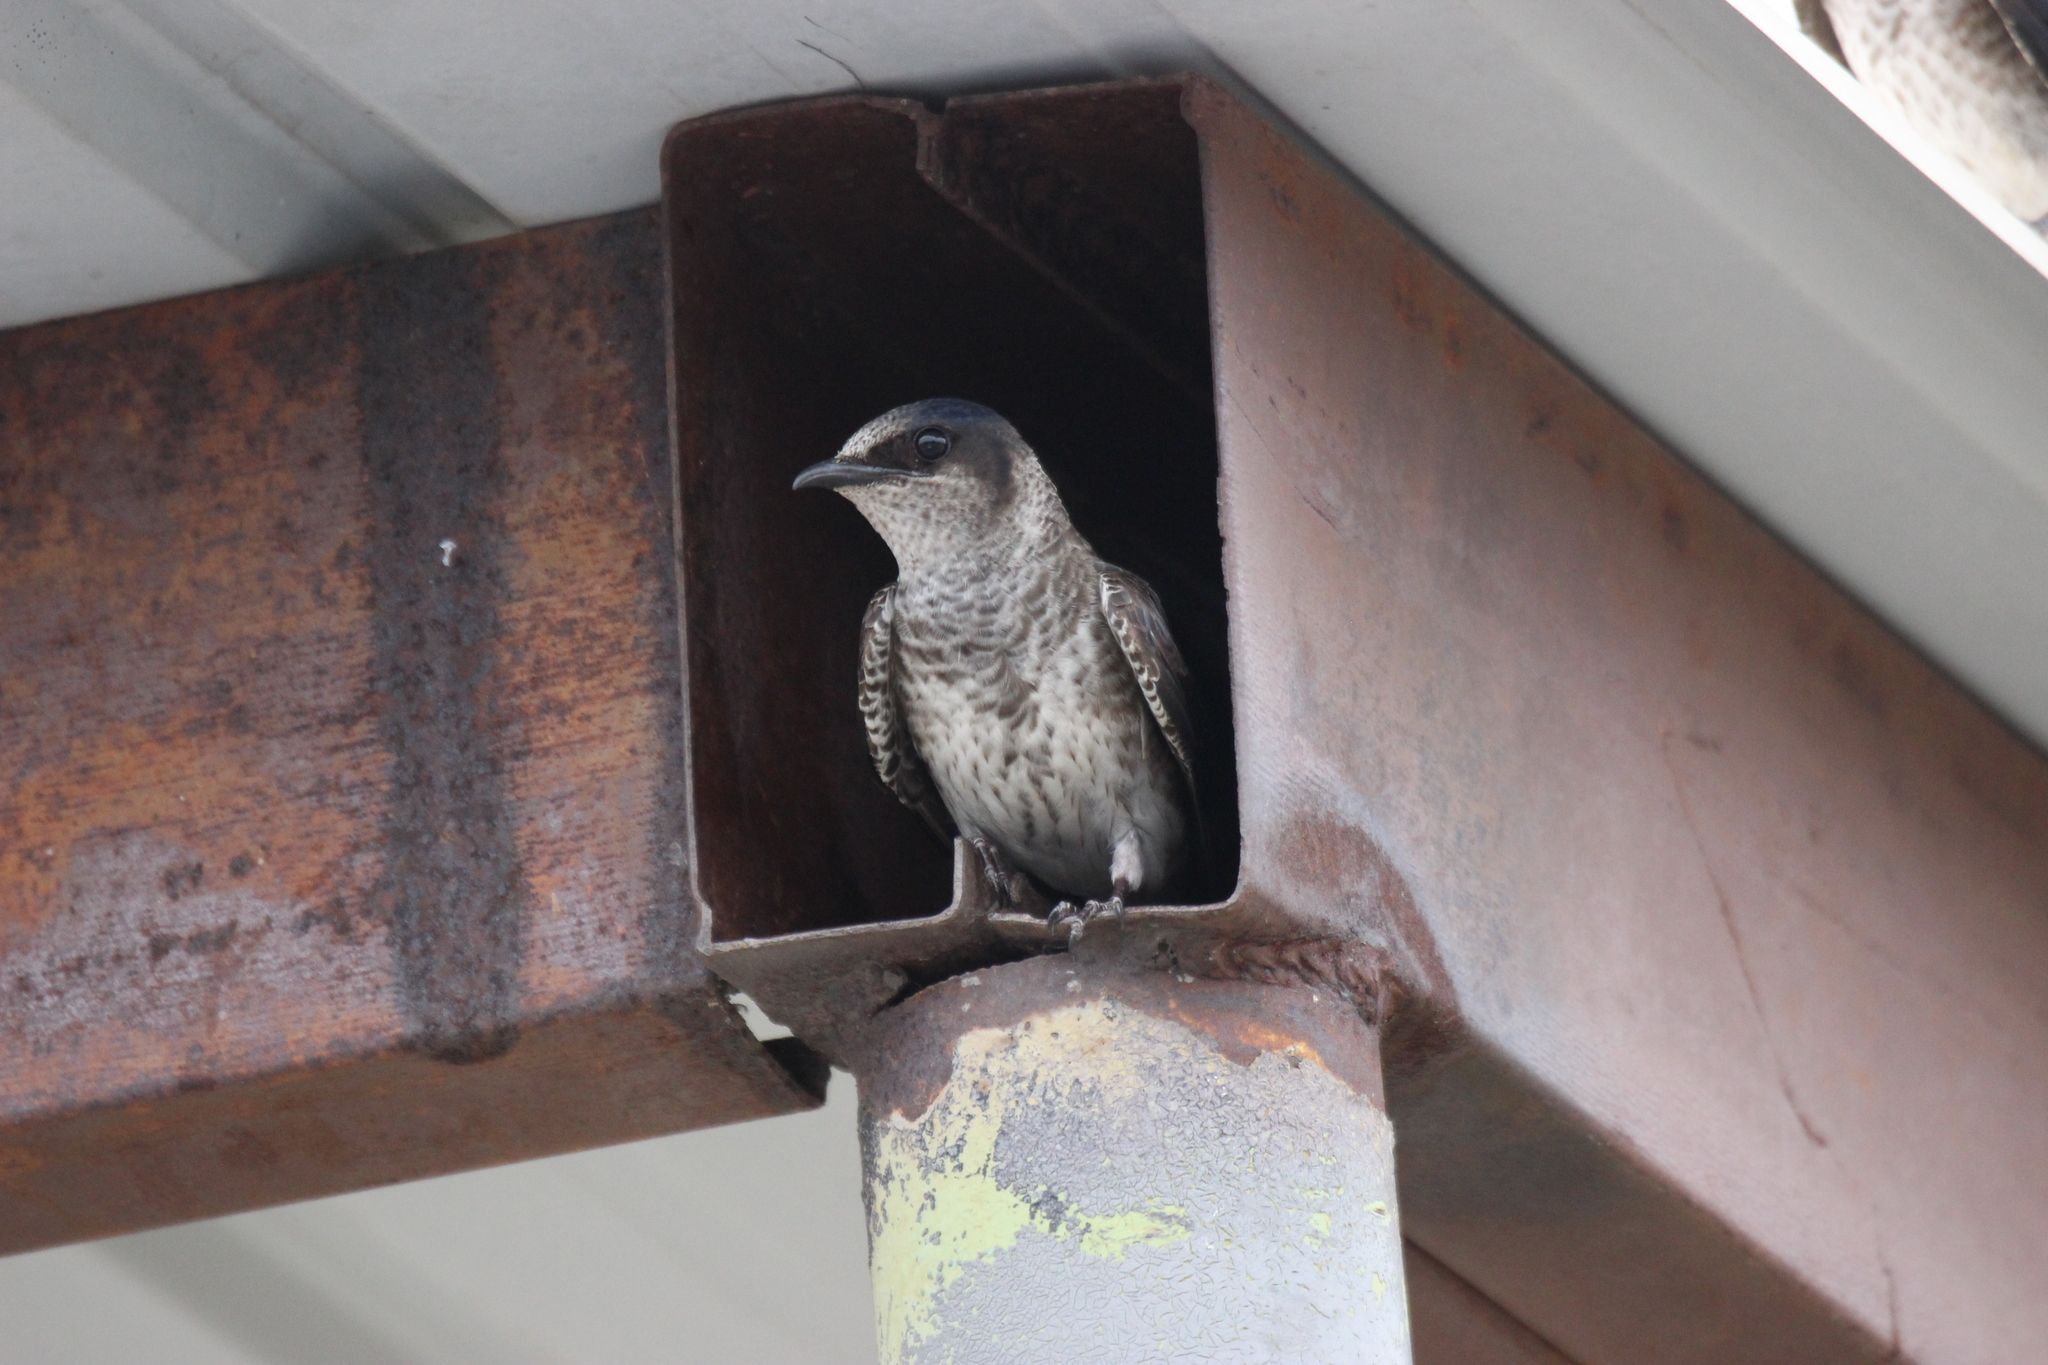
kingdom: Animalia
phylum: Chordata
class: Aves
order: Passeriformes
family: Hirundinidae
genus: Progne
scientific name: Progne subis
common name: Purple martin
